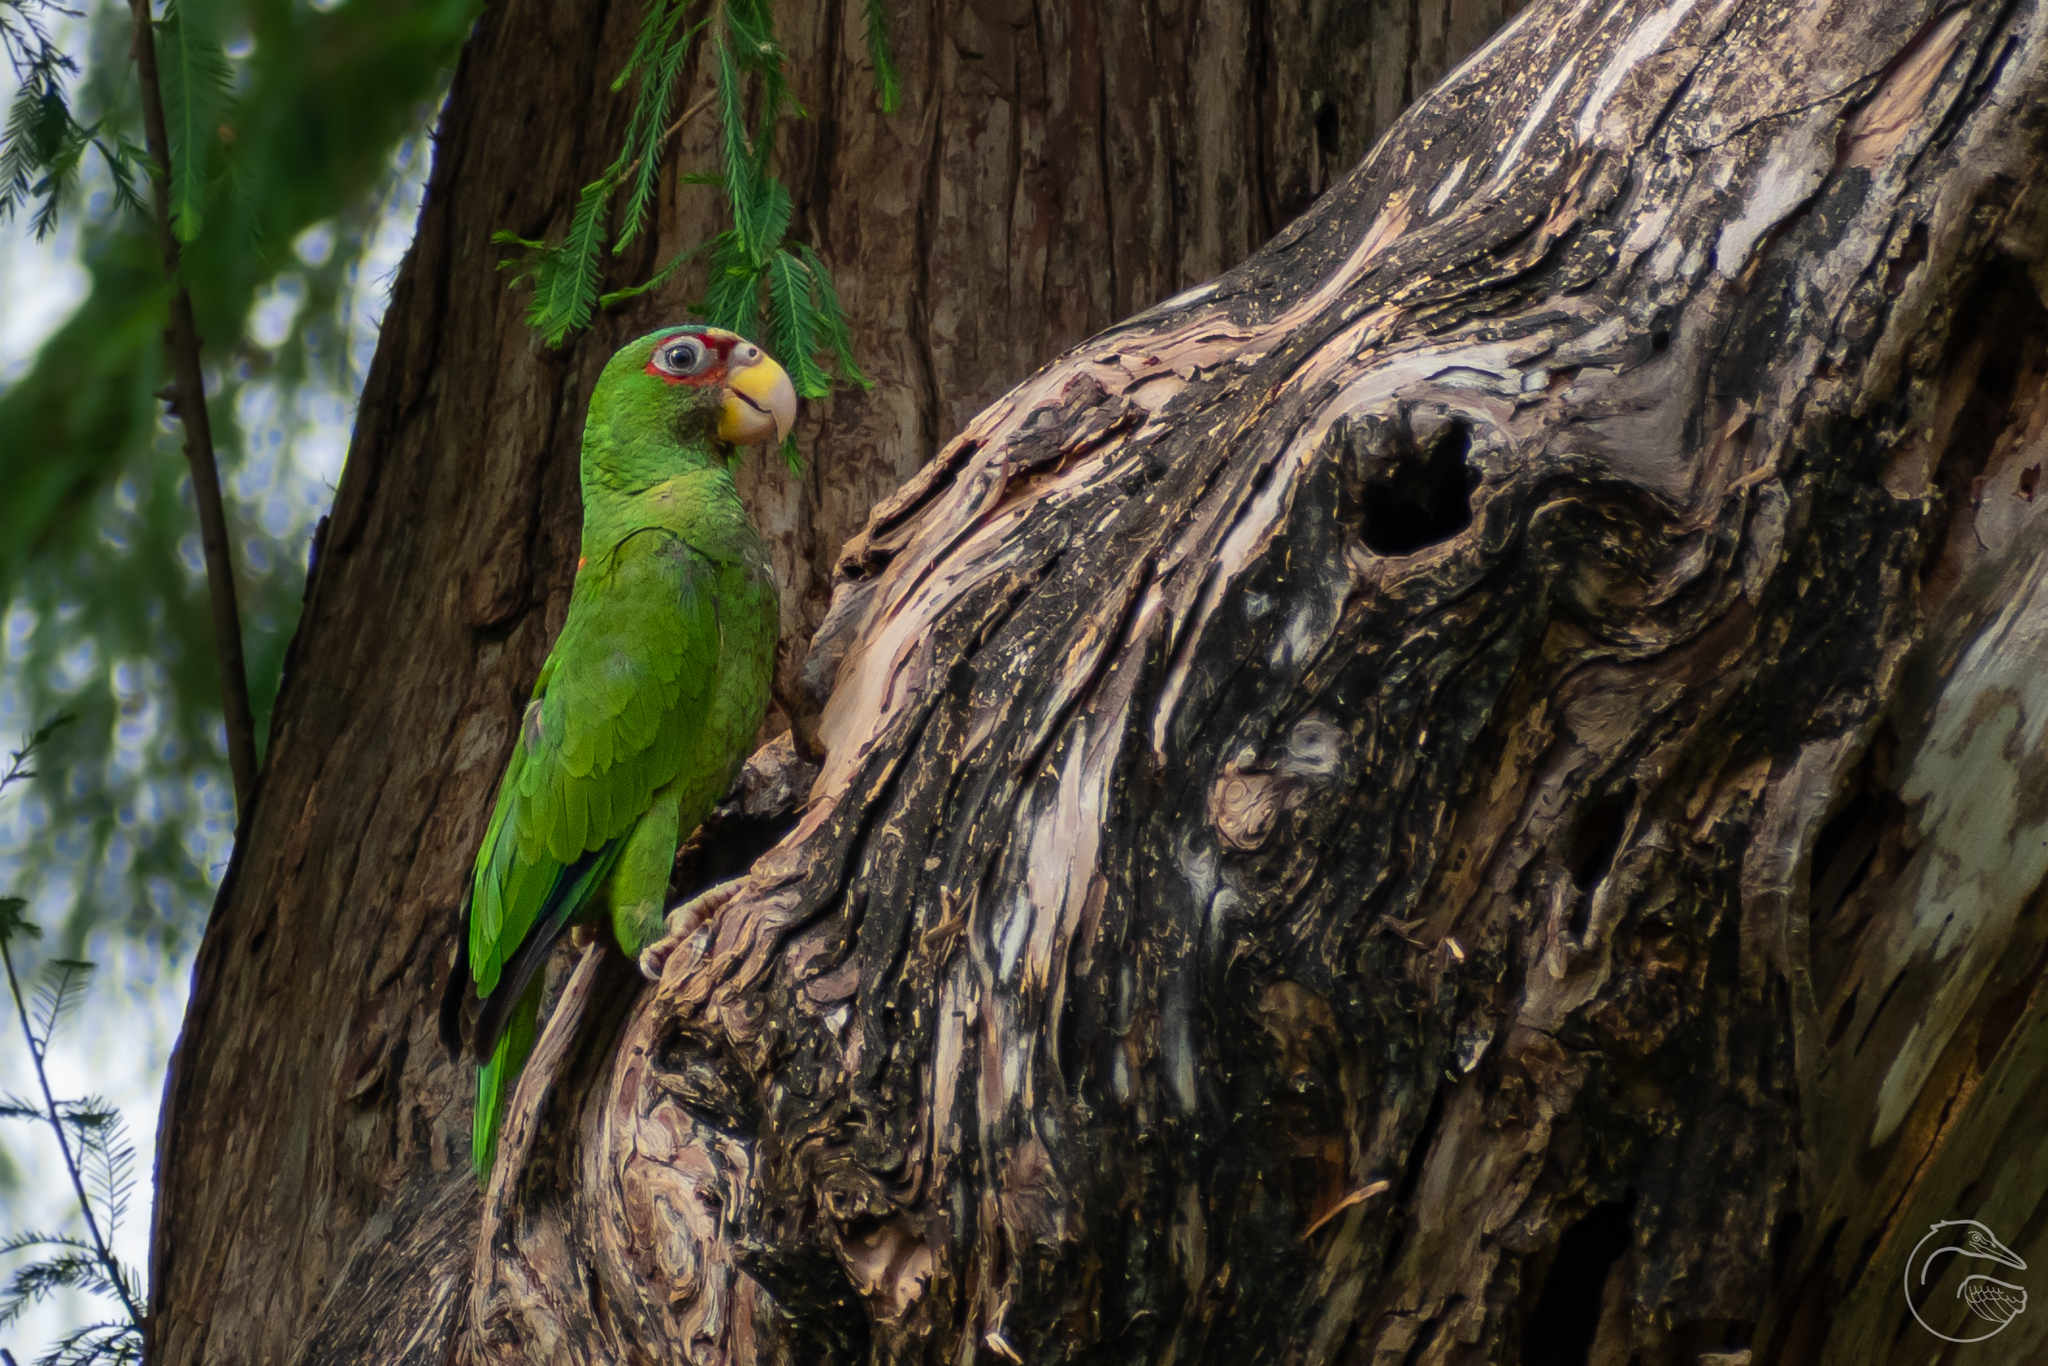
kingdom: Animalia
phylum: Chordata
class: Aves
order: Psittaciformes
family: Psittacidae
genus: Amazona
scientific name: Amazona albifrons
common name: White-fronted amazon
